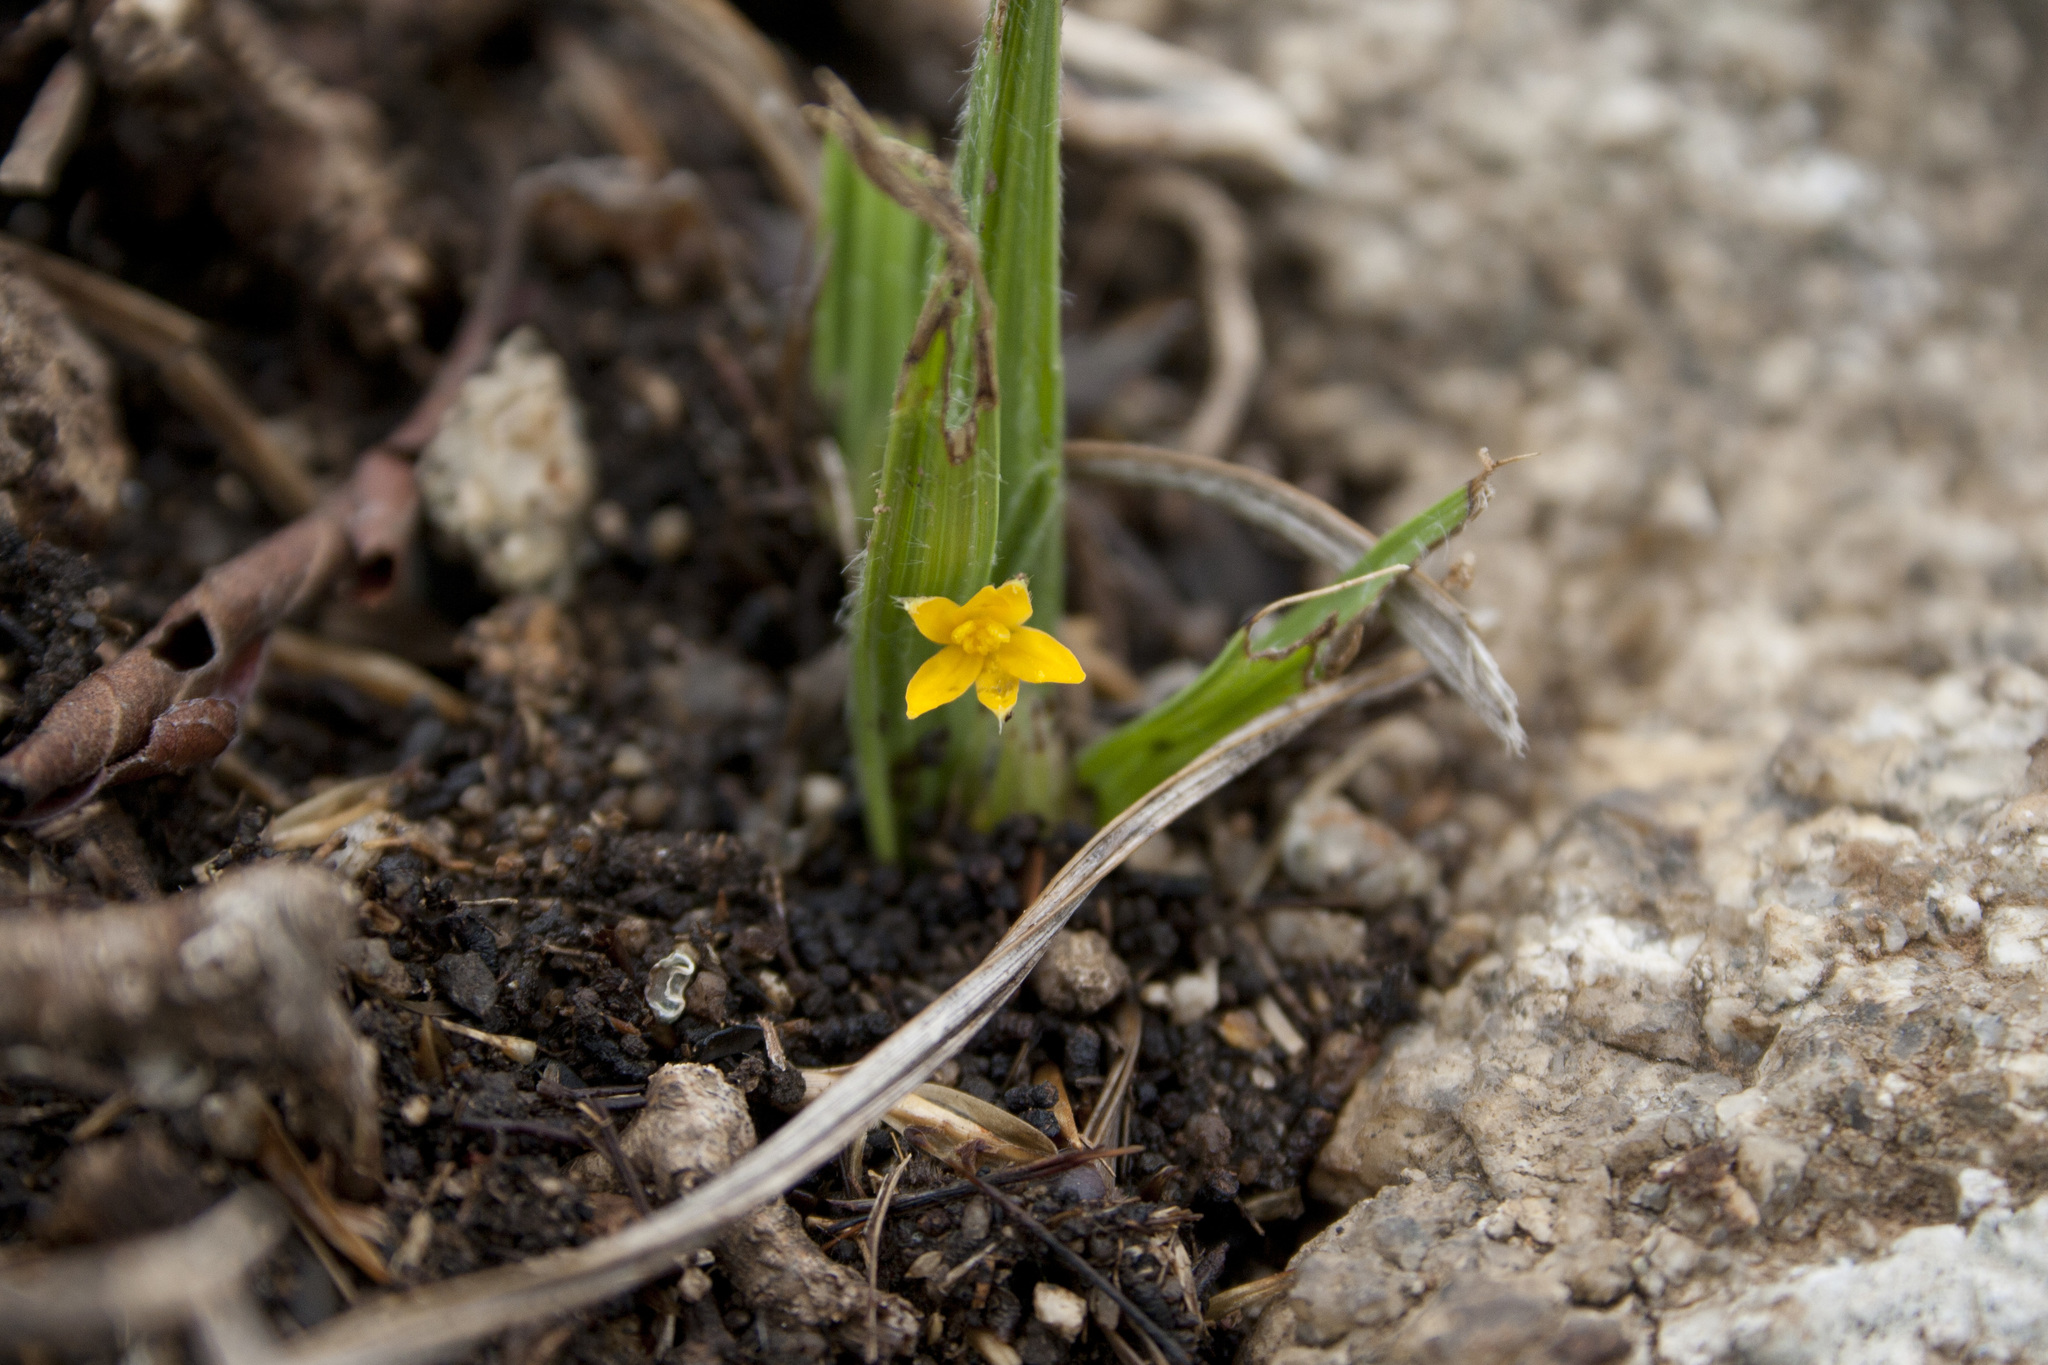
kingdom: Plantae
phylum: Tracheophyta
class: Liliopsida
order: Asparagales
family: Hypoxidaceae
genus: Curculigo
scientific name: Curculigo orchioides
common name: Golden eye-grass
